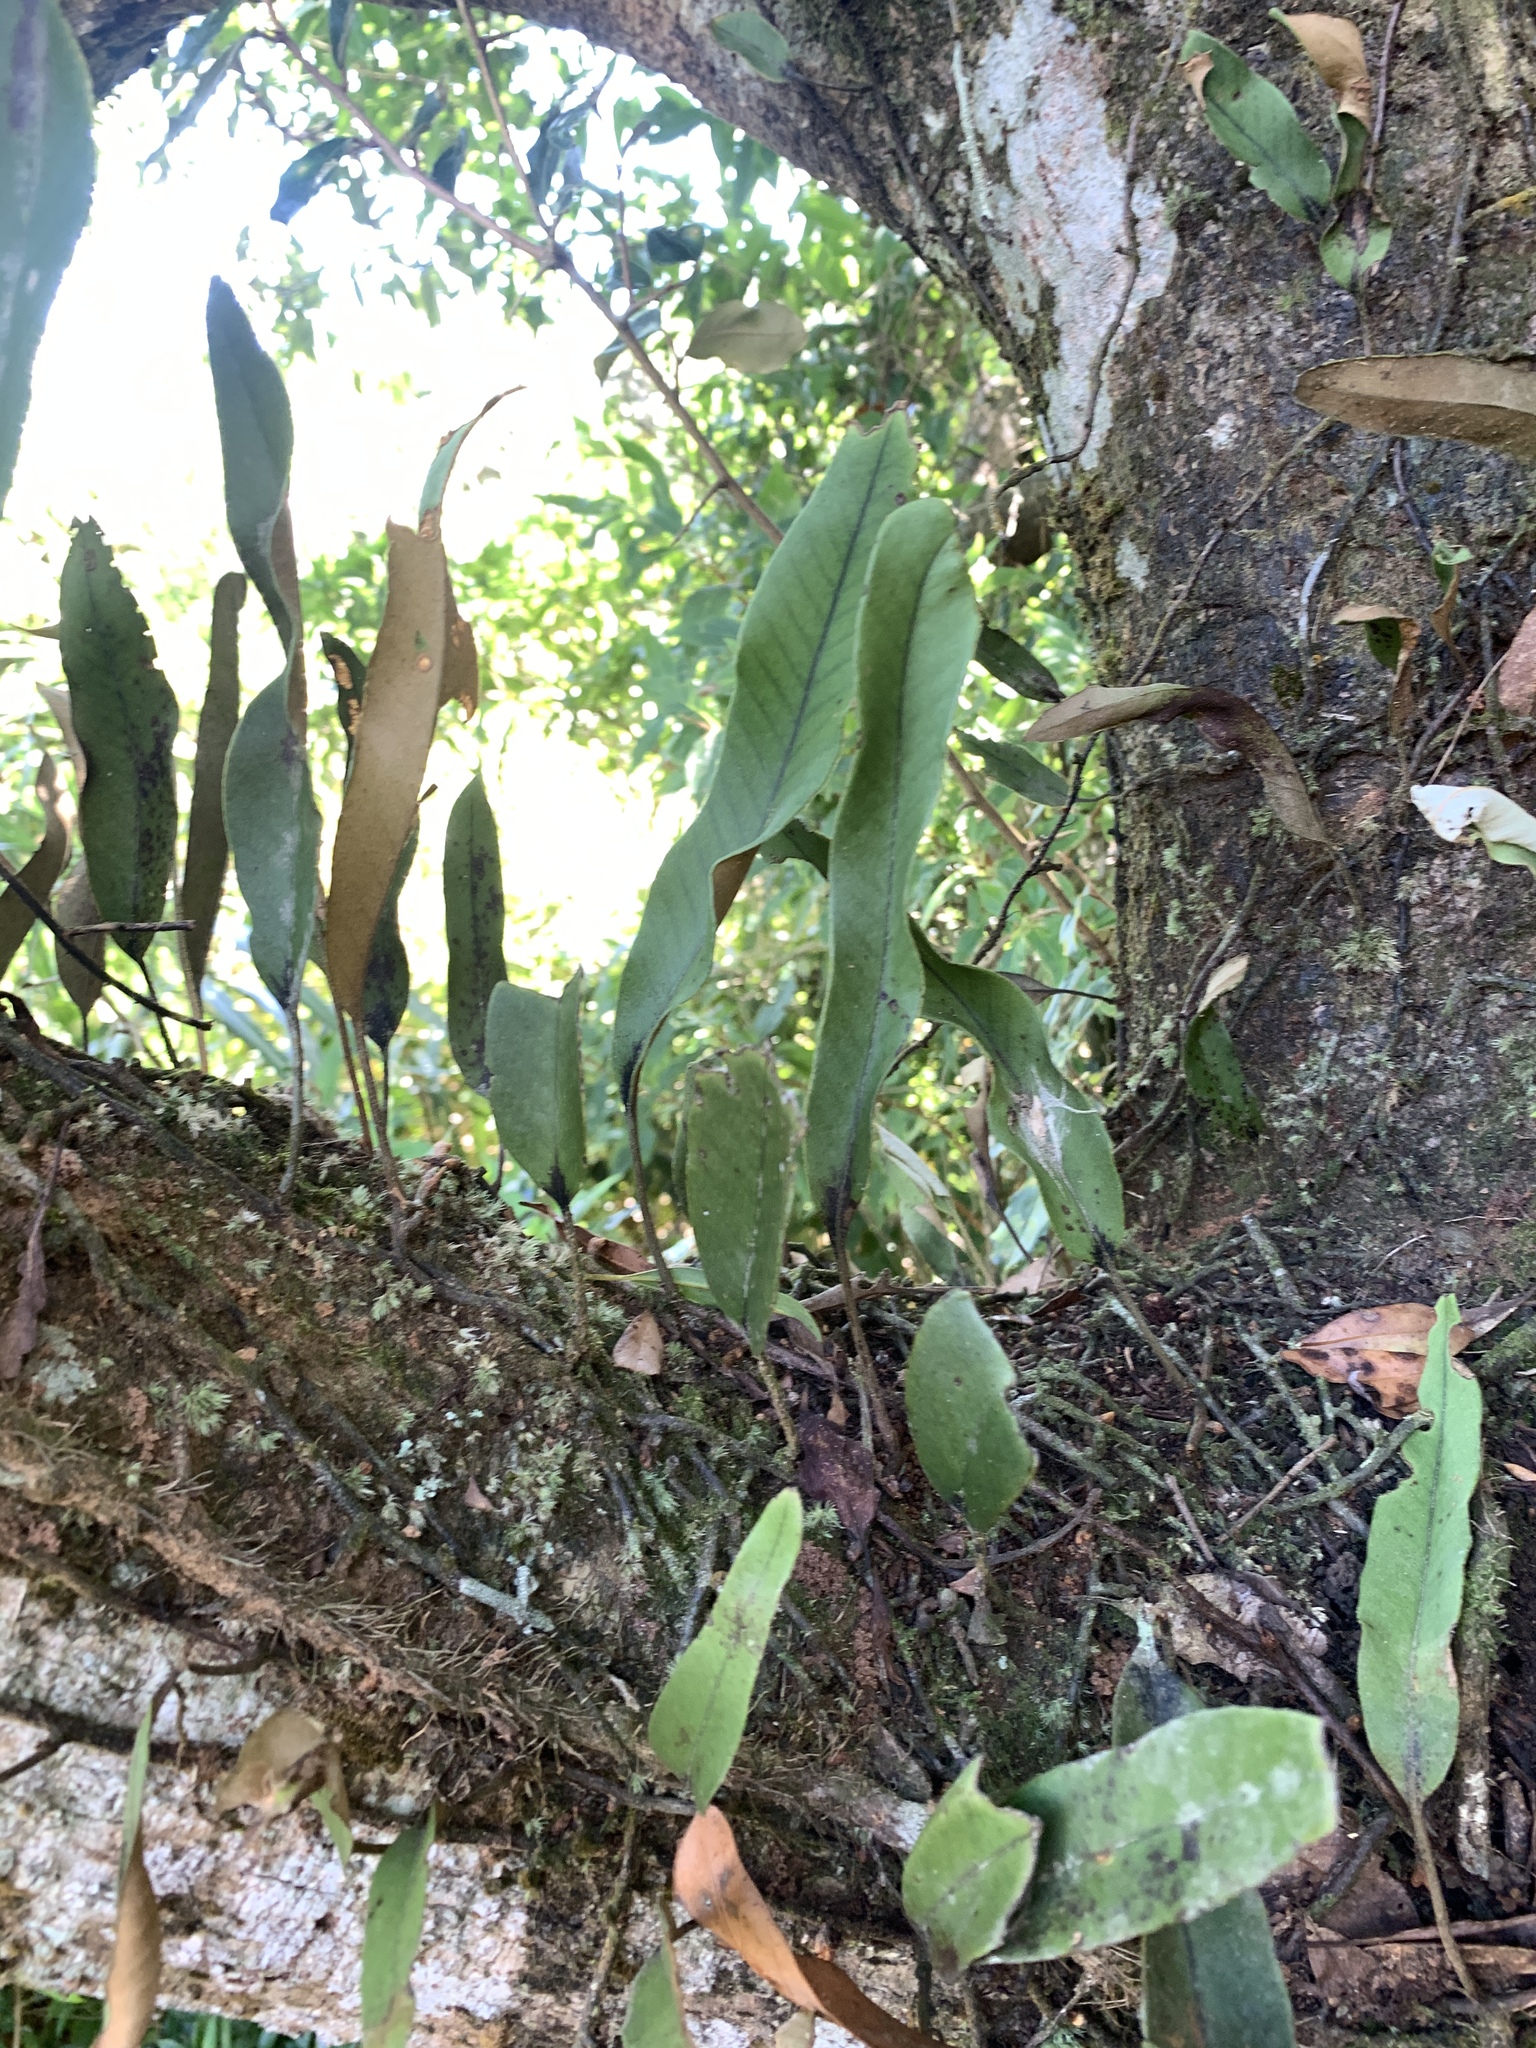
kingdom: Plantae
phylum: Tracheophyta
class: Polypodiopsida
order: Polypodiales
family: Polypodiaceae
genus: Pyrrosia
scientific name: Pyrrosia lingua
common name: Felt fern
